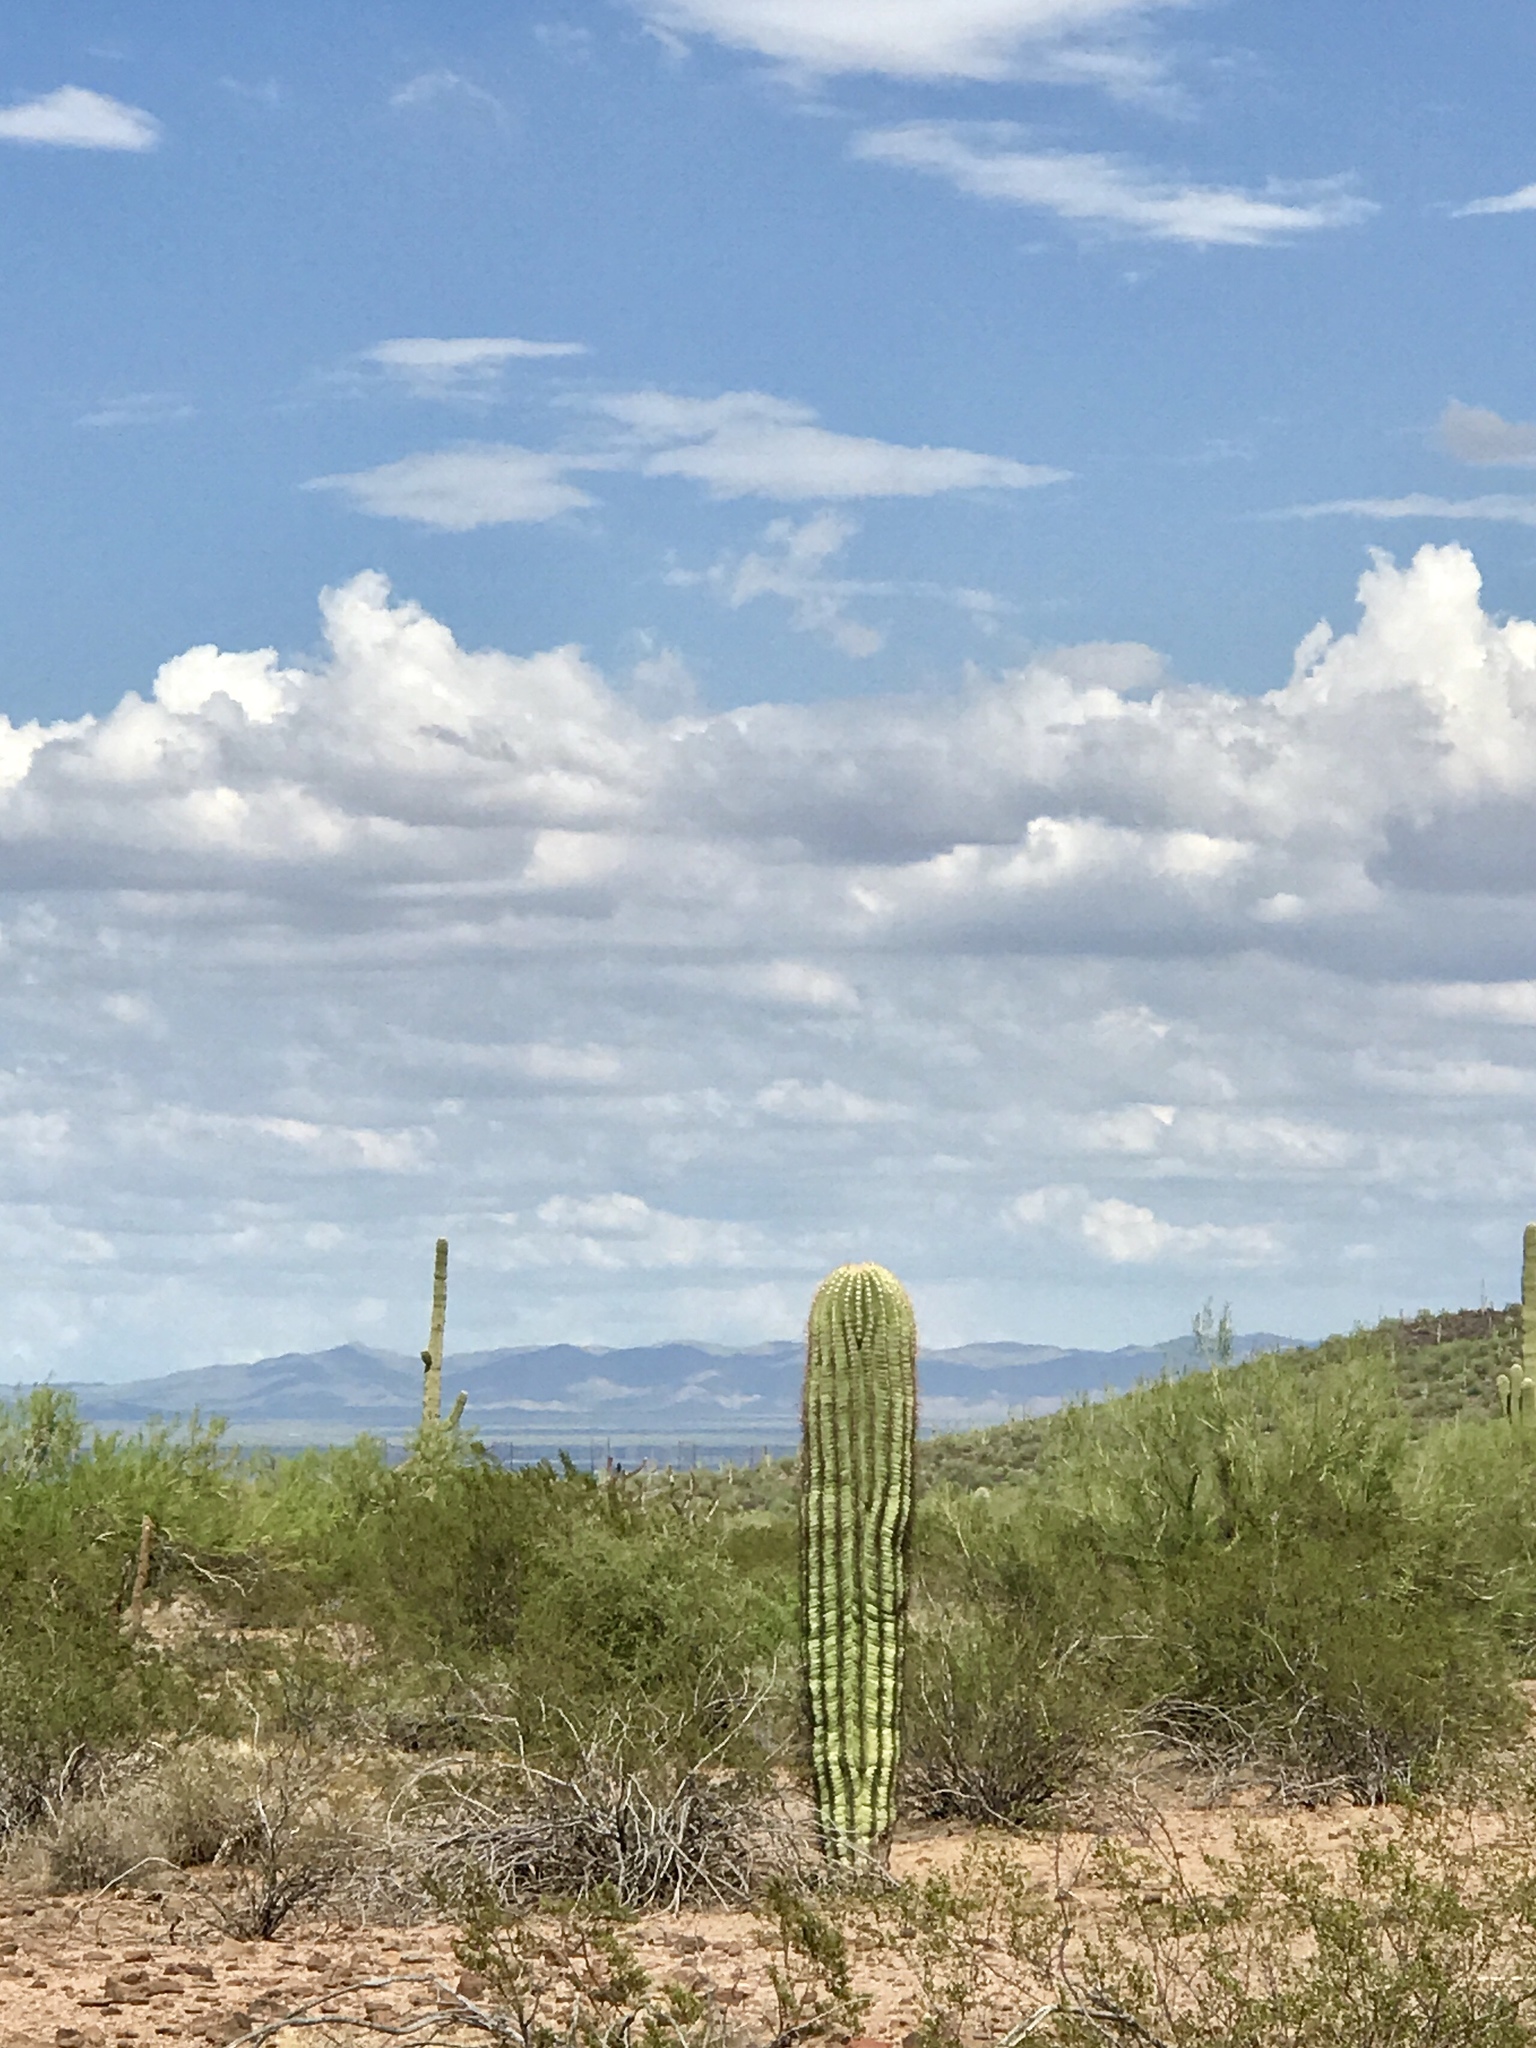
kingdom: Plantae
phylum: Tracheophyta
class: Magnoliopsida
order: Caryophyllales
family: Cactaceae
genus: Carnegiea
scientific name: Carnegiea gigantea
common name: Saguaro
